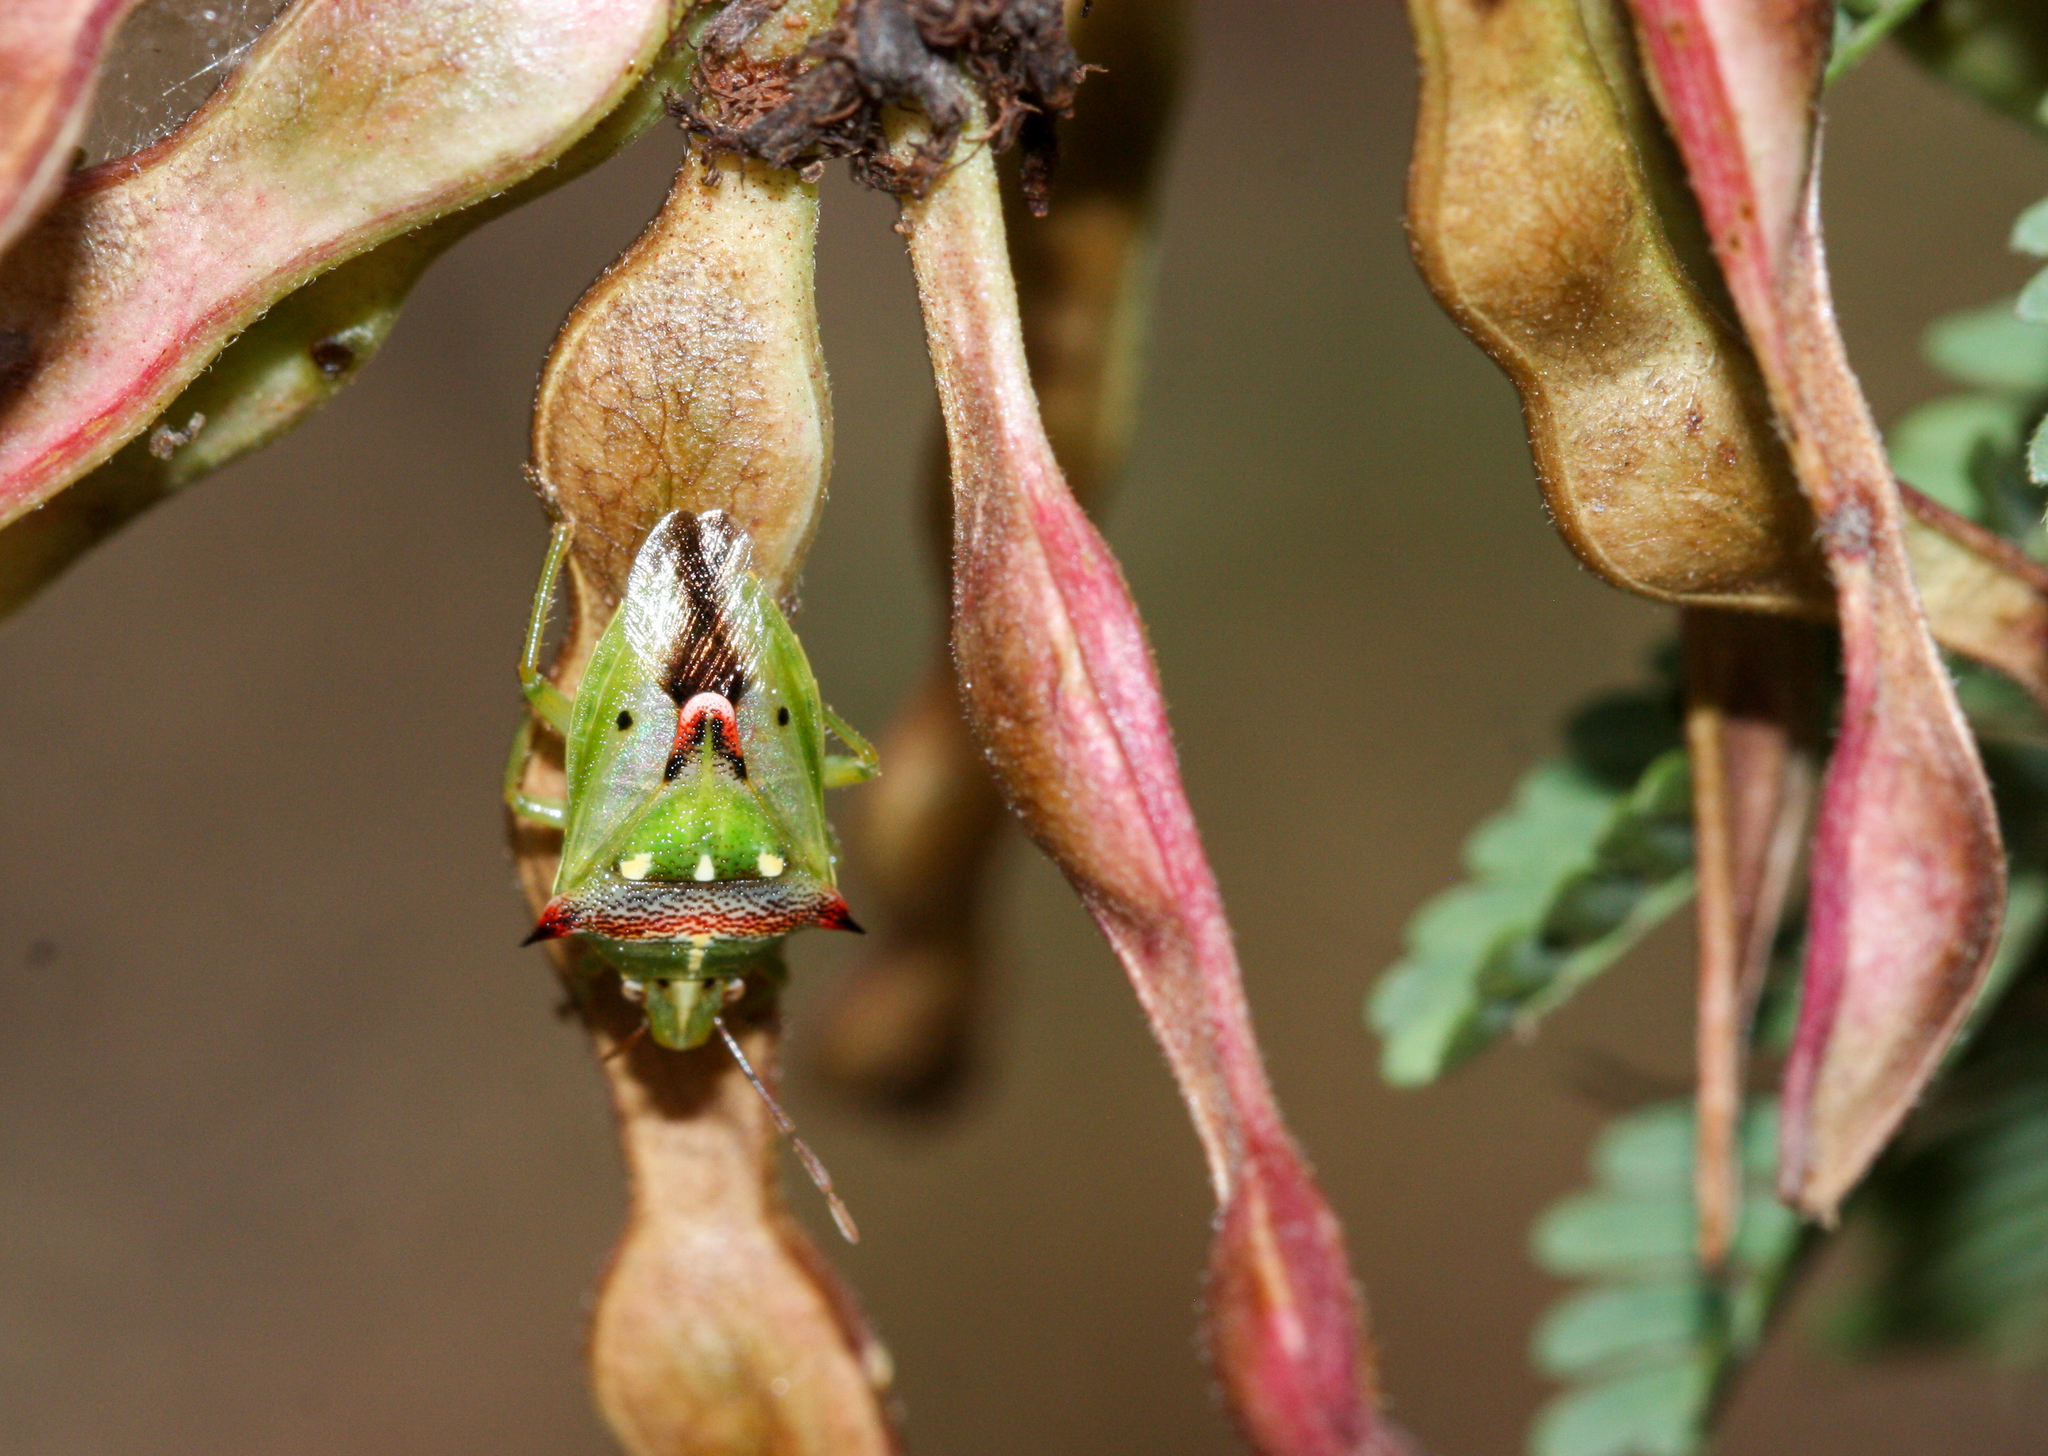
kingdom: Animalia
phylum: Arthropoda
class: Insecta
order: Hemiptera
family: Pentatomidae
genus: Tylospilus
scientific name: Tylospilus acutissimus
